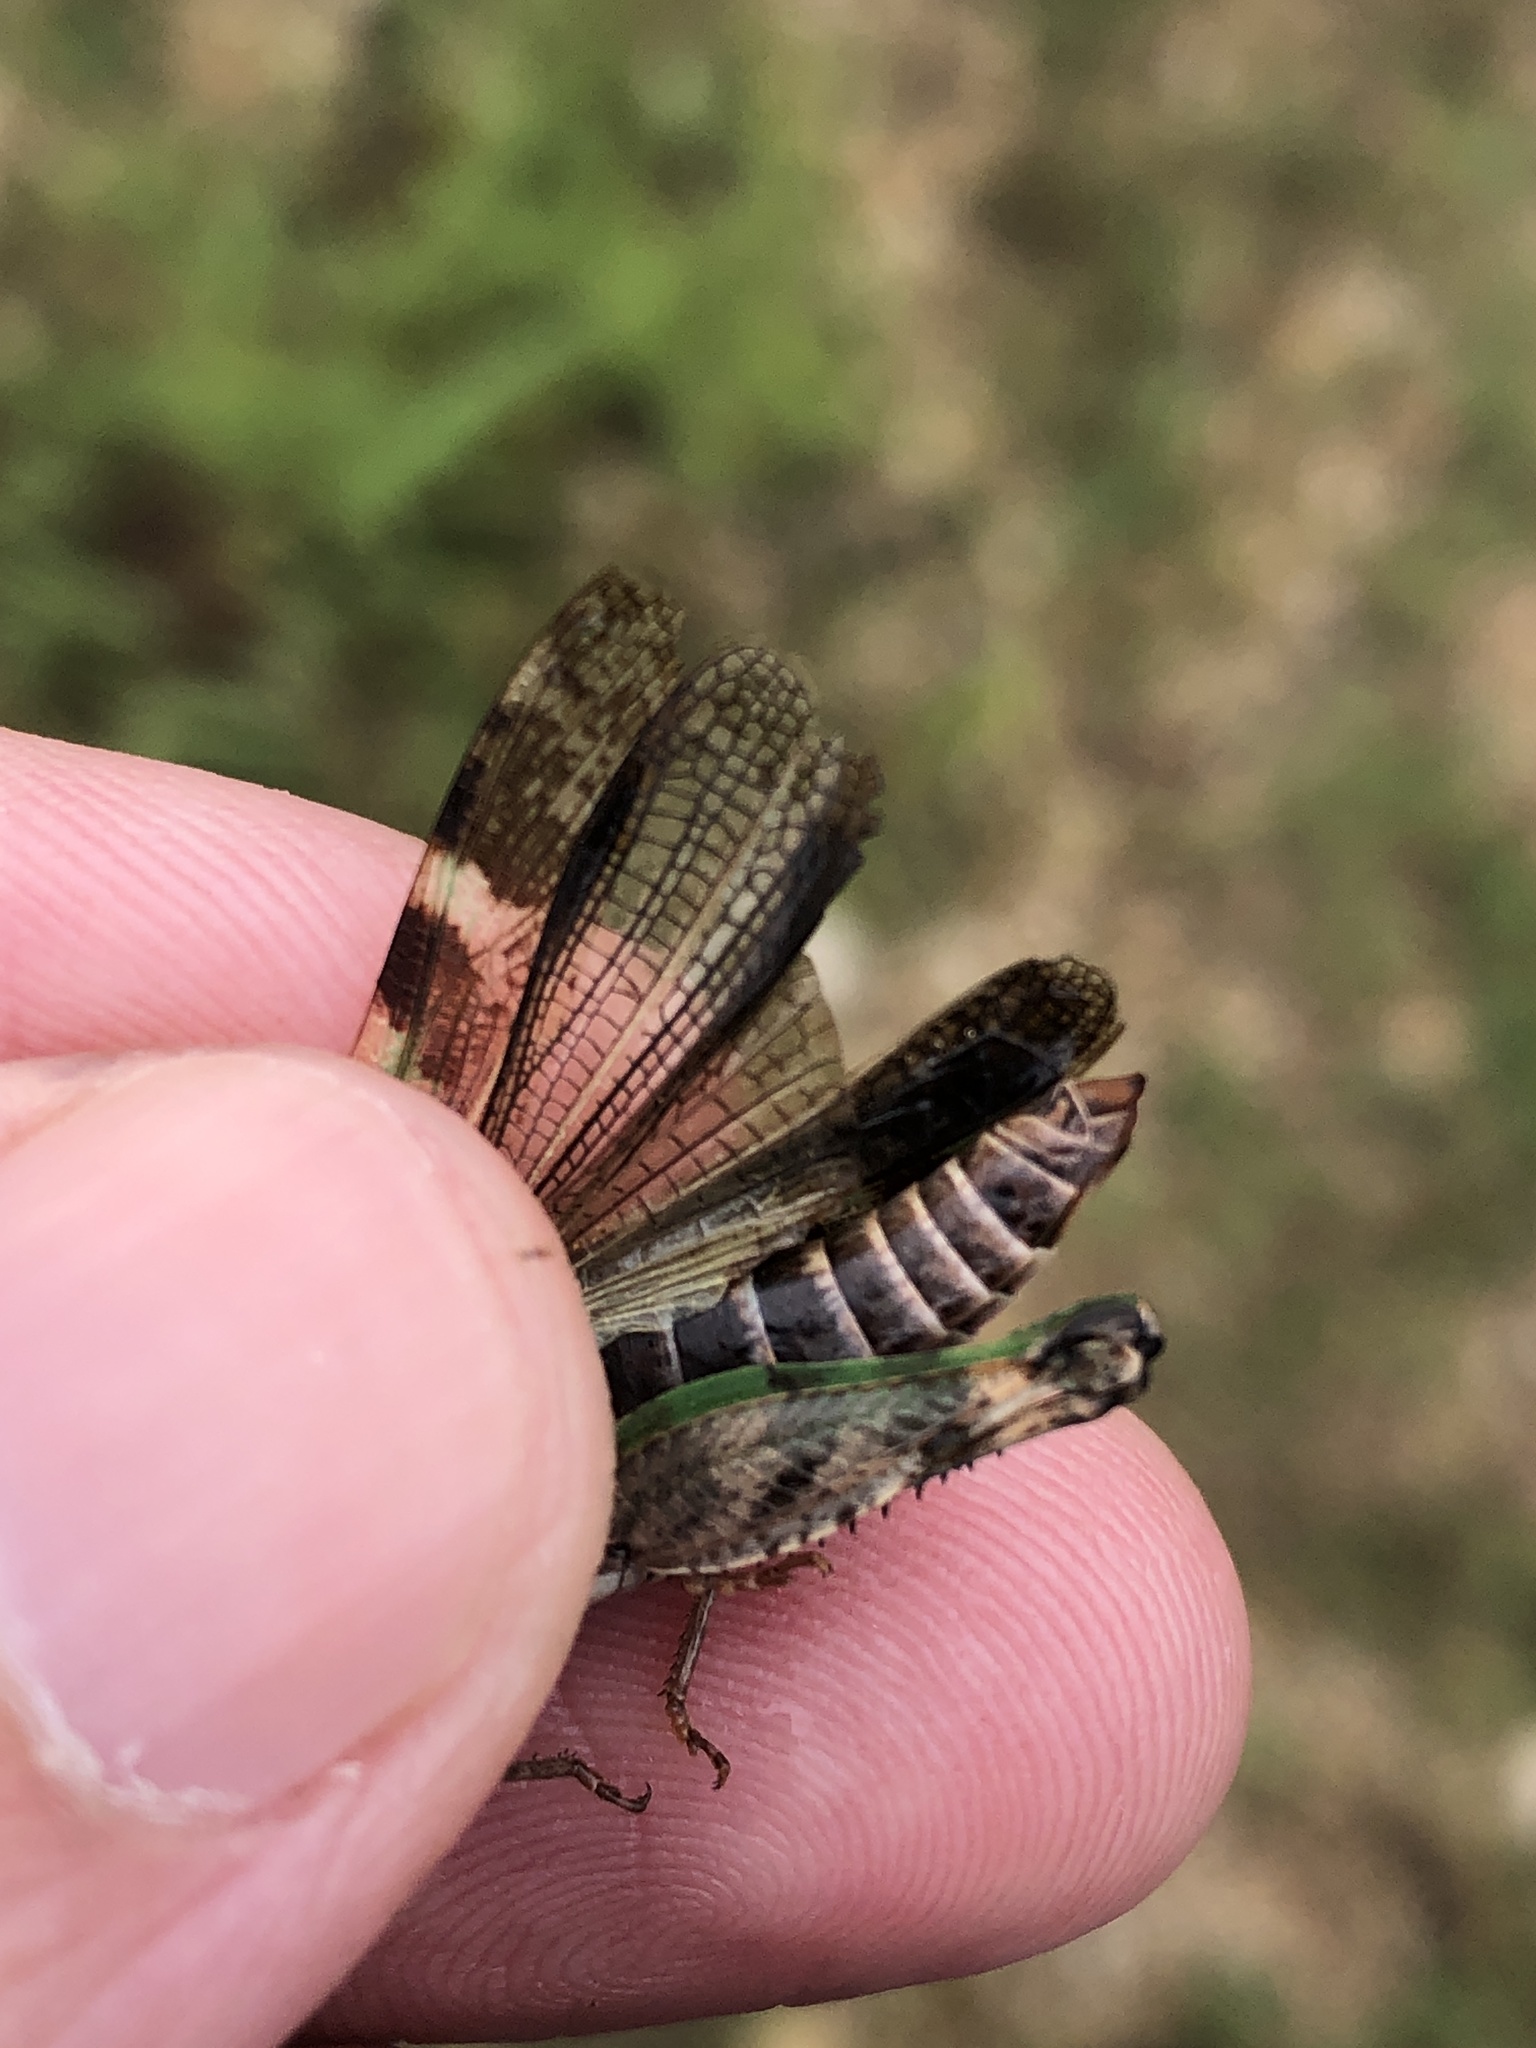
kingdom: Animalia
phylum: Arthropoda
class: Insecta
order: Orthoptera
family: Acrididae
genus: Encoptolophus
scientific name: Encoptolophus costalis
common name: Dusky grasshopper
